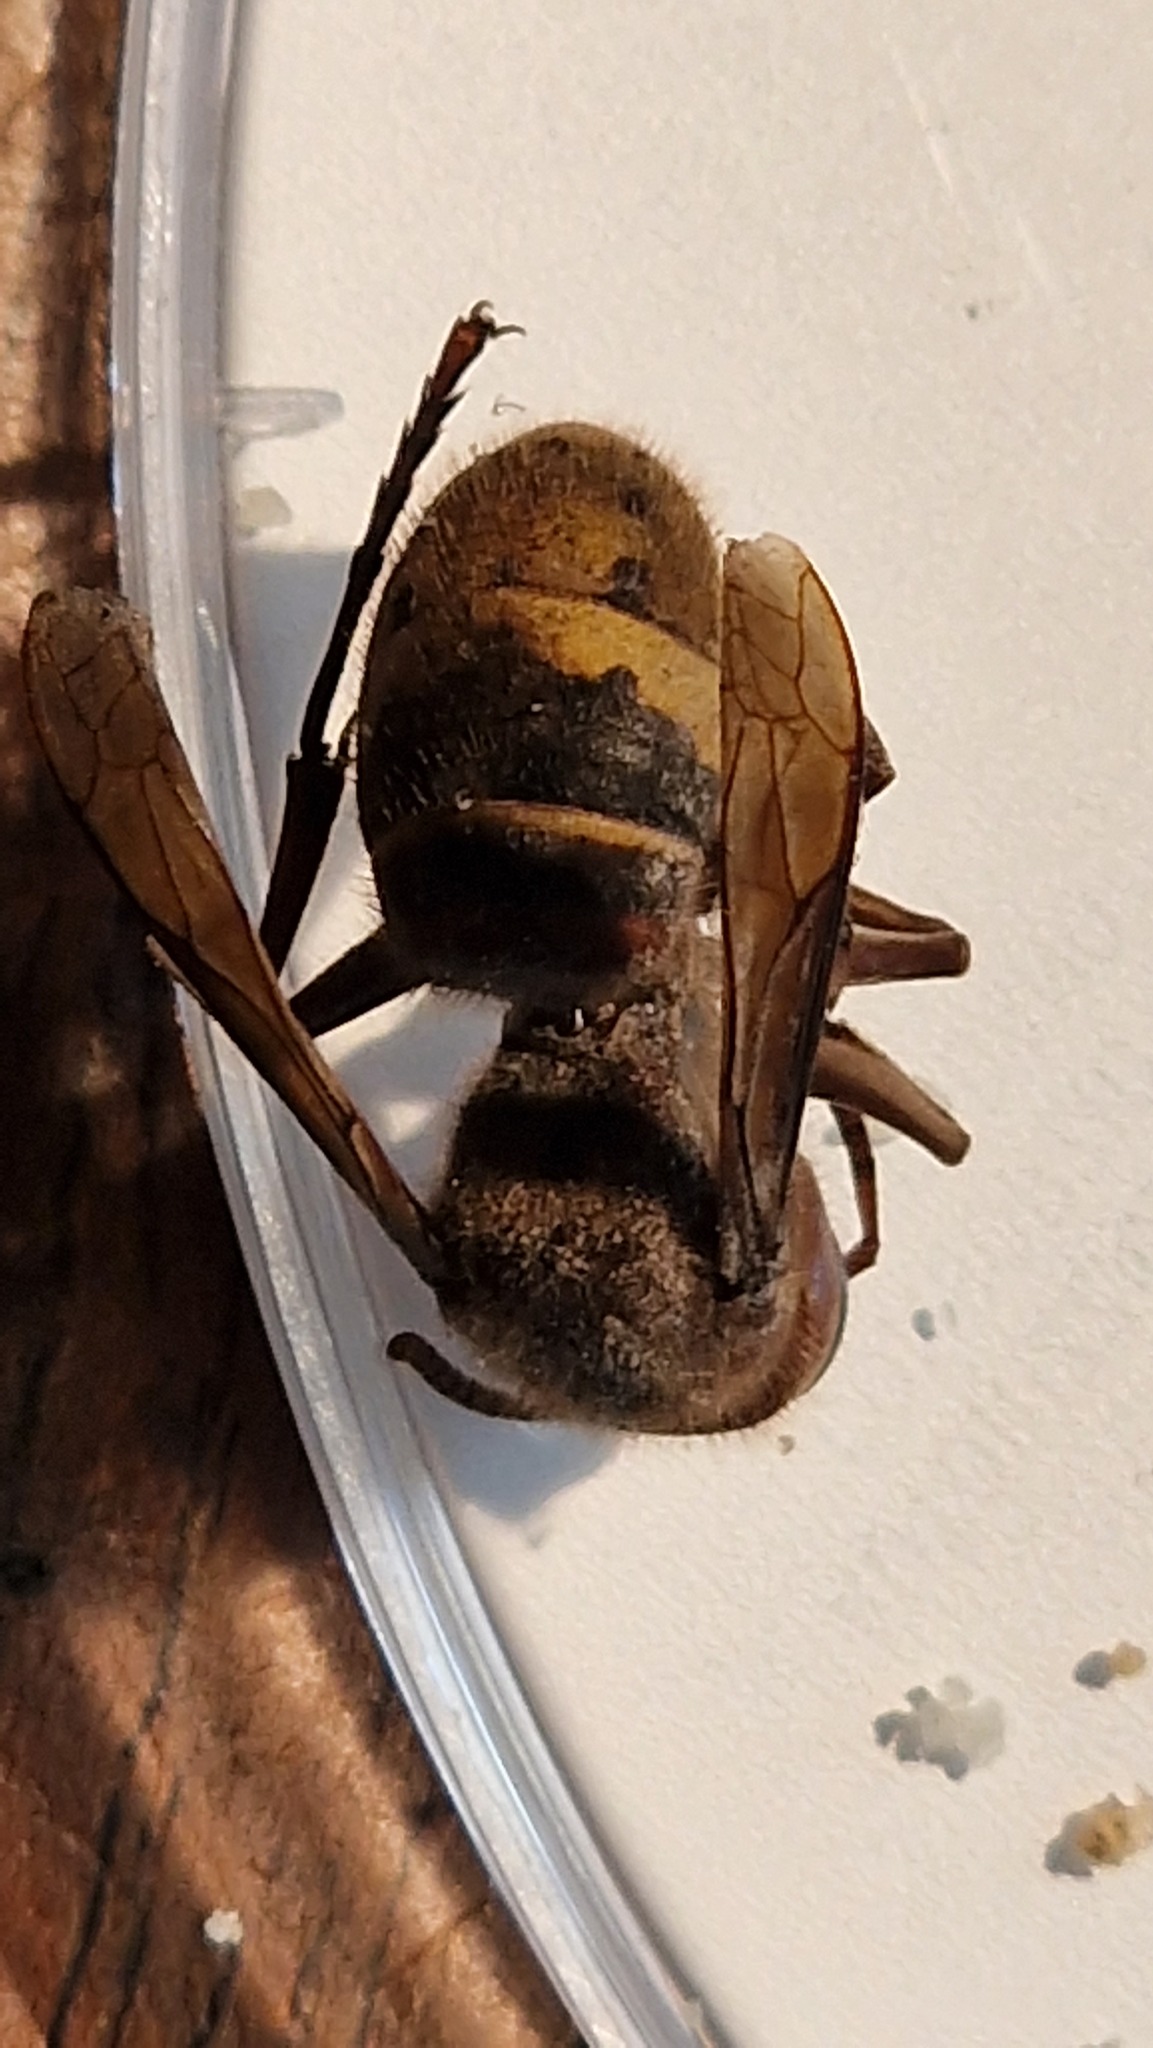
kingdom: Animalia
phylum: Arthropoda
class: Insecta
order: Hymenoptera
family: Vespidae
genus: Vespa
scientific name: Vespa crabro
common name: Hornet
